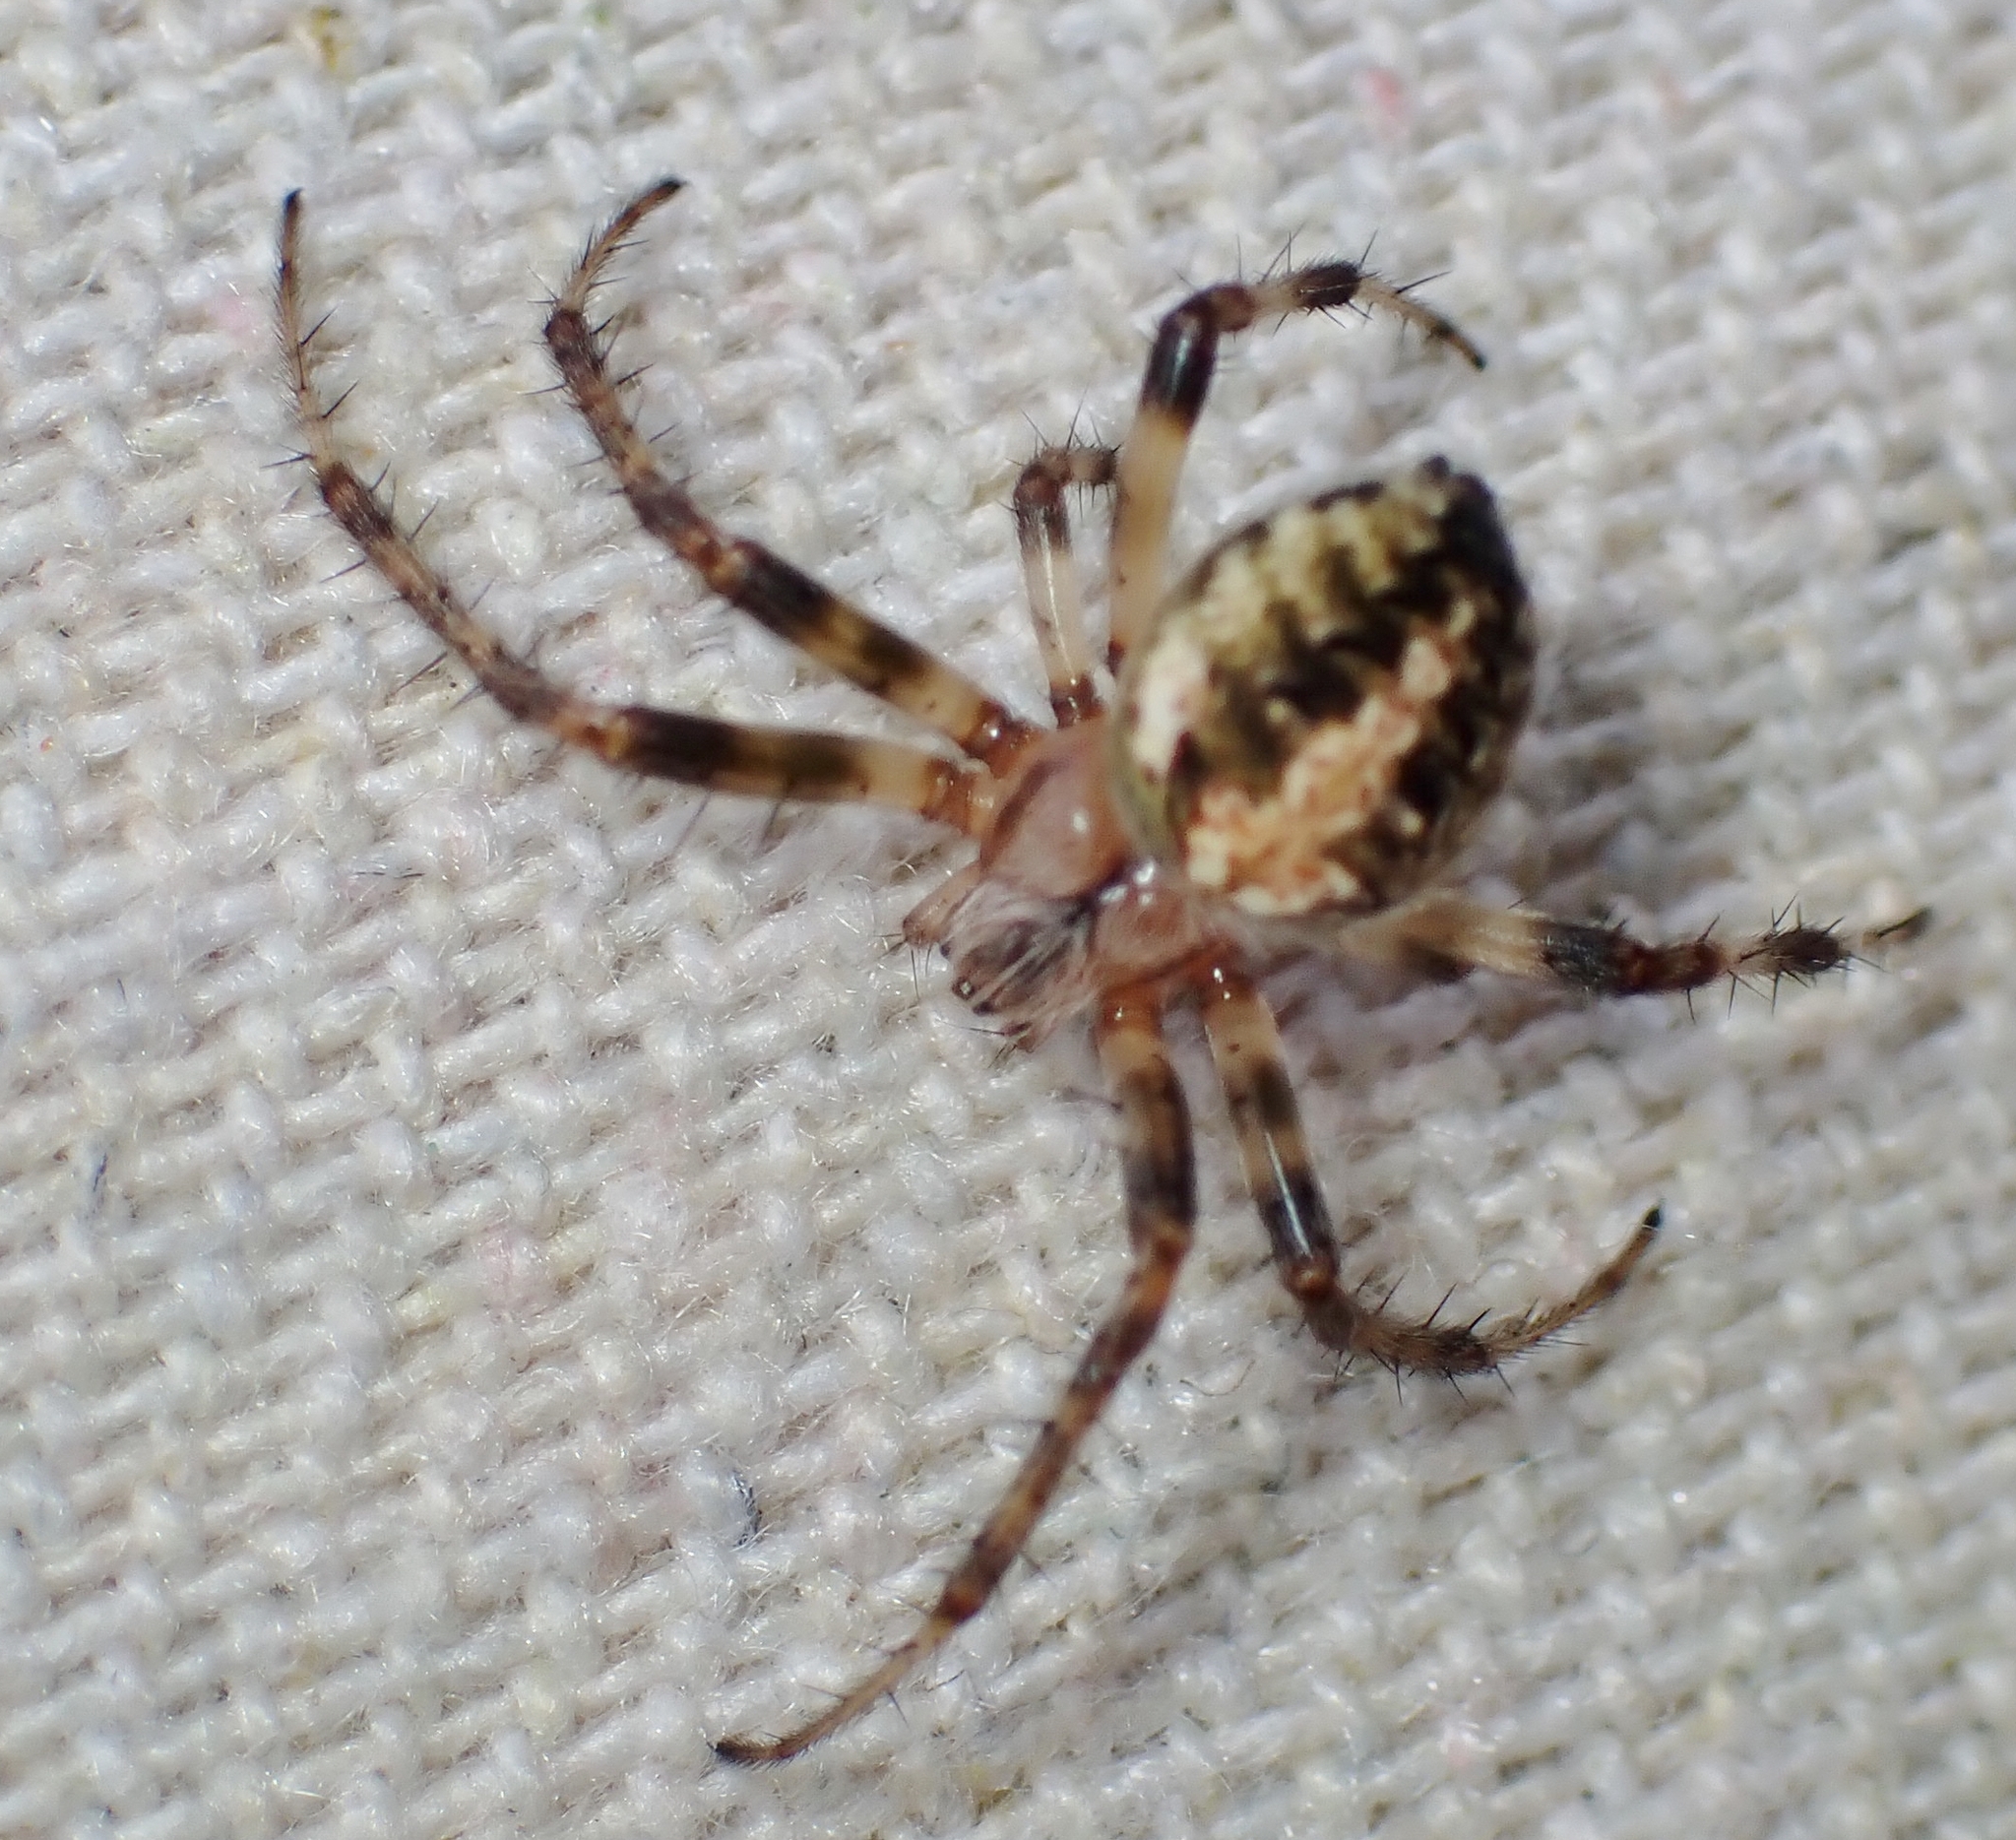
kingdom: Animalia
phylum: Arthropoda
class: Arachnida
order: Araneae
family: Araneidae
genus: Neoscona
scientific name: Neoscona arabesca
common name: Orb weavers
